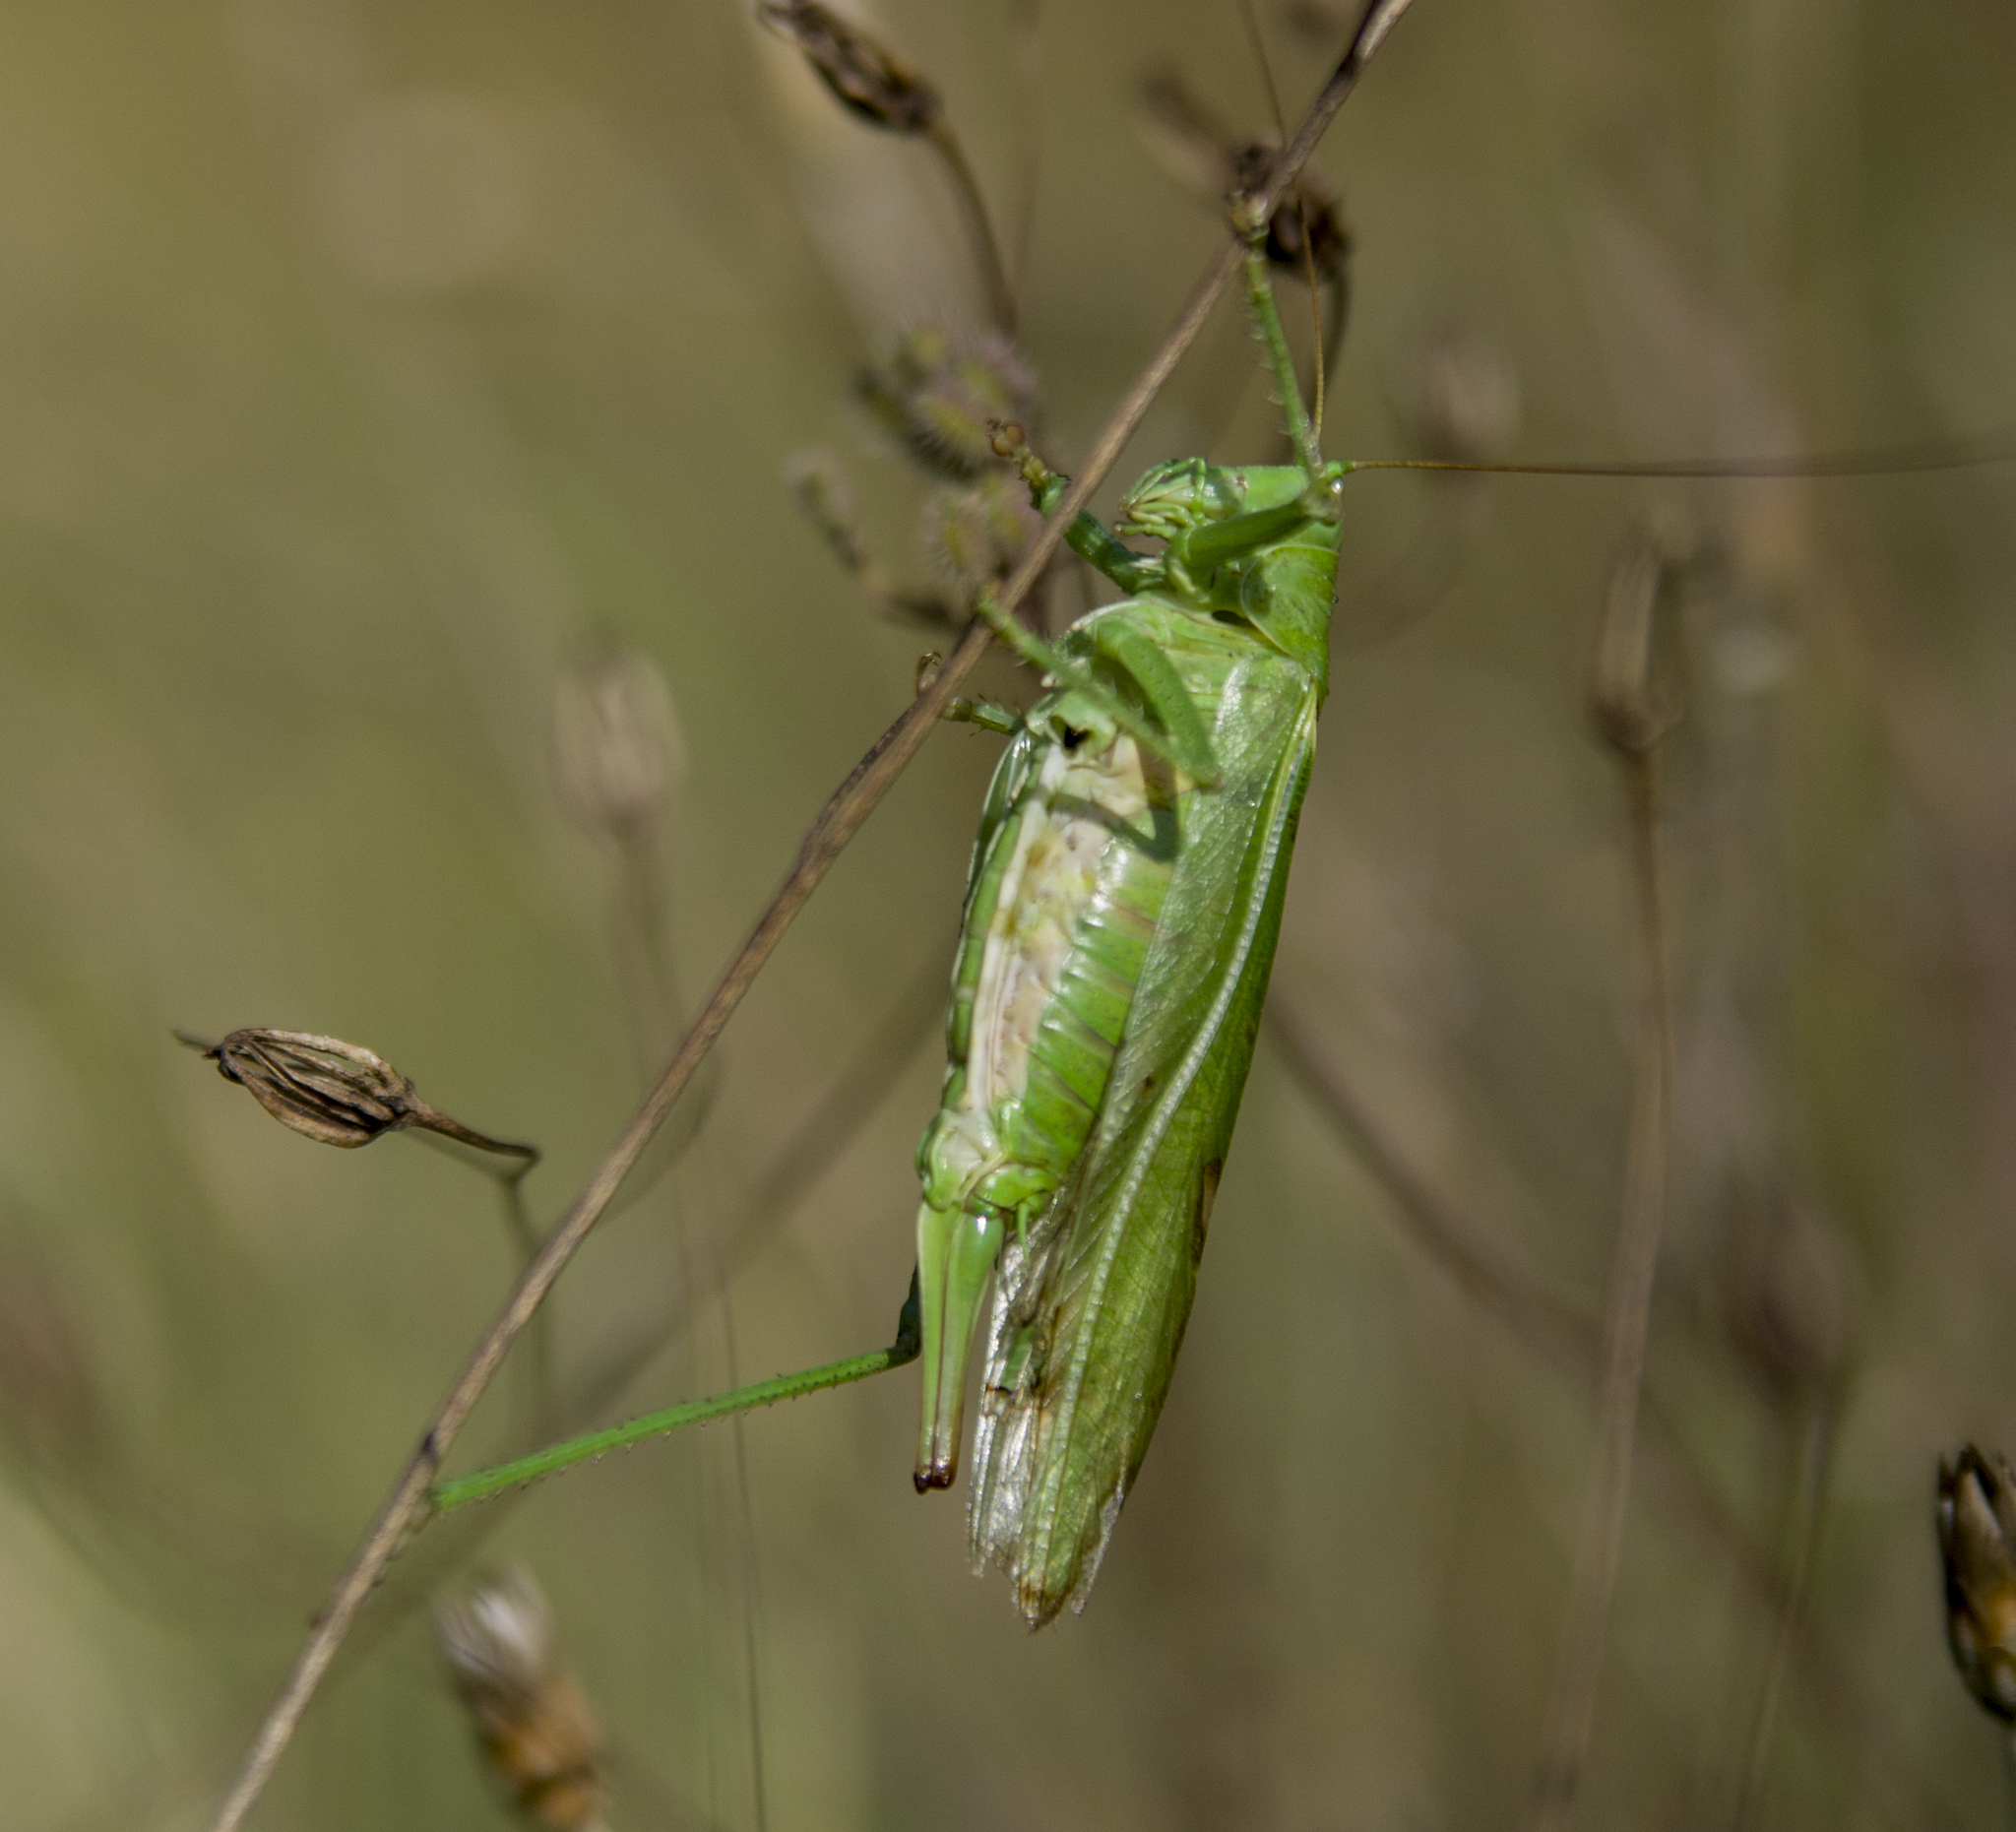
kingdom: Animalia
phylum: Arthropoda
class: Insecta
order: Orthoptera
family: Tettigoniidae
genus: Tettigonia
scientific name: Tettigonia viridissima
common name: Great green bush-cricket
